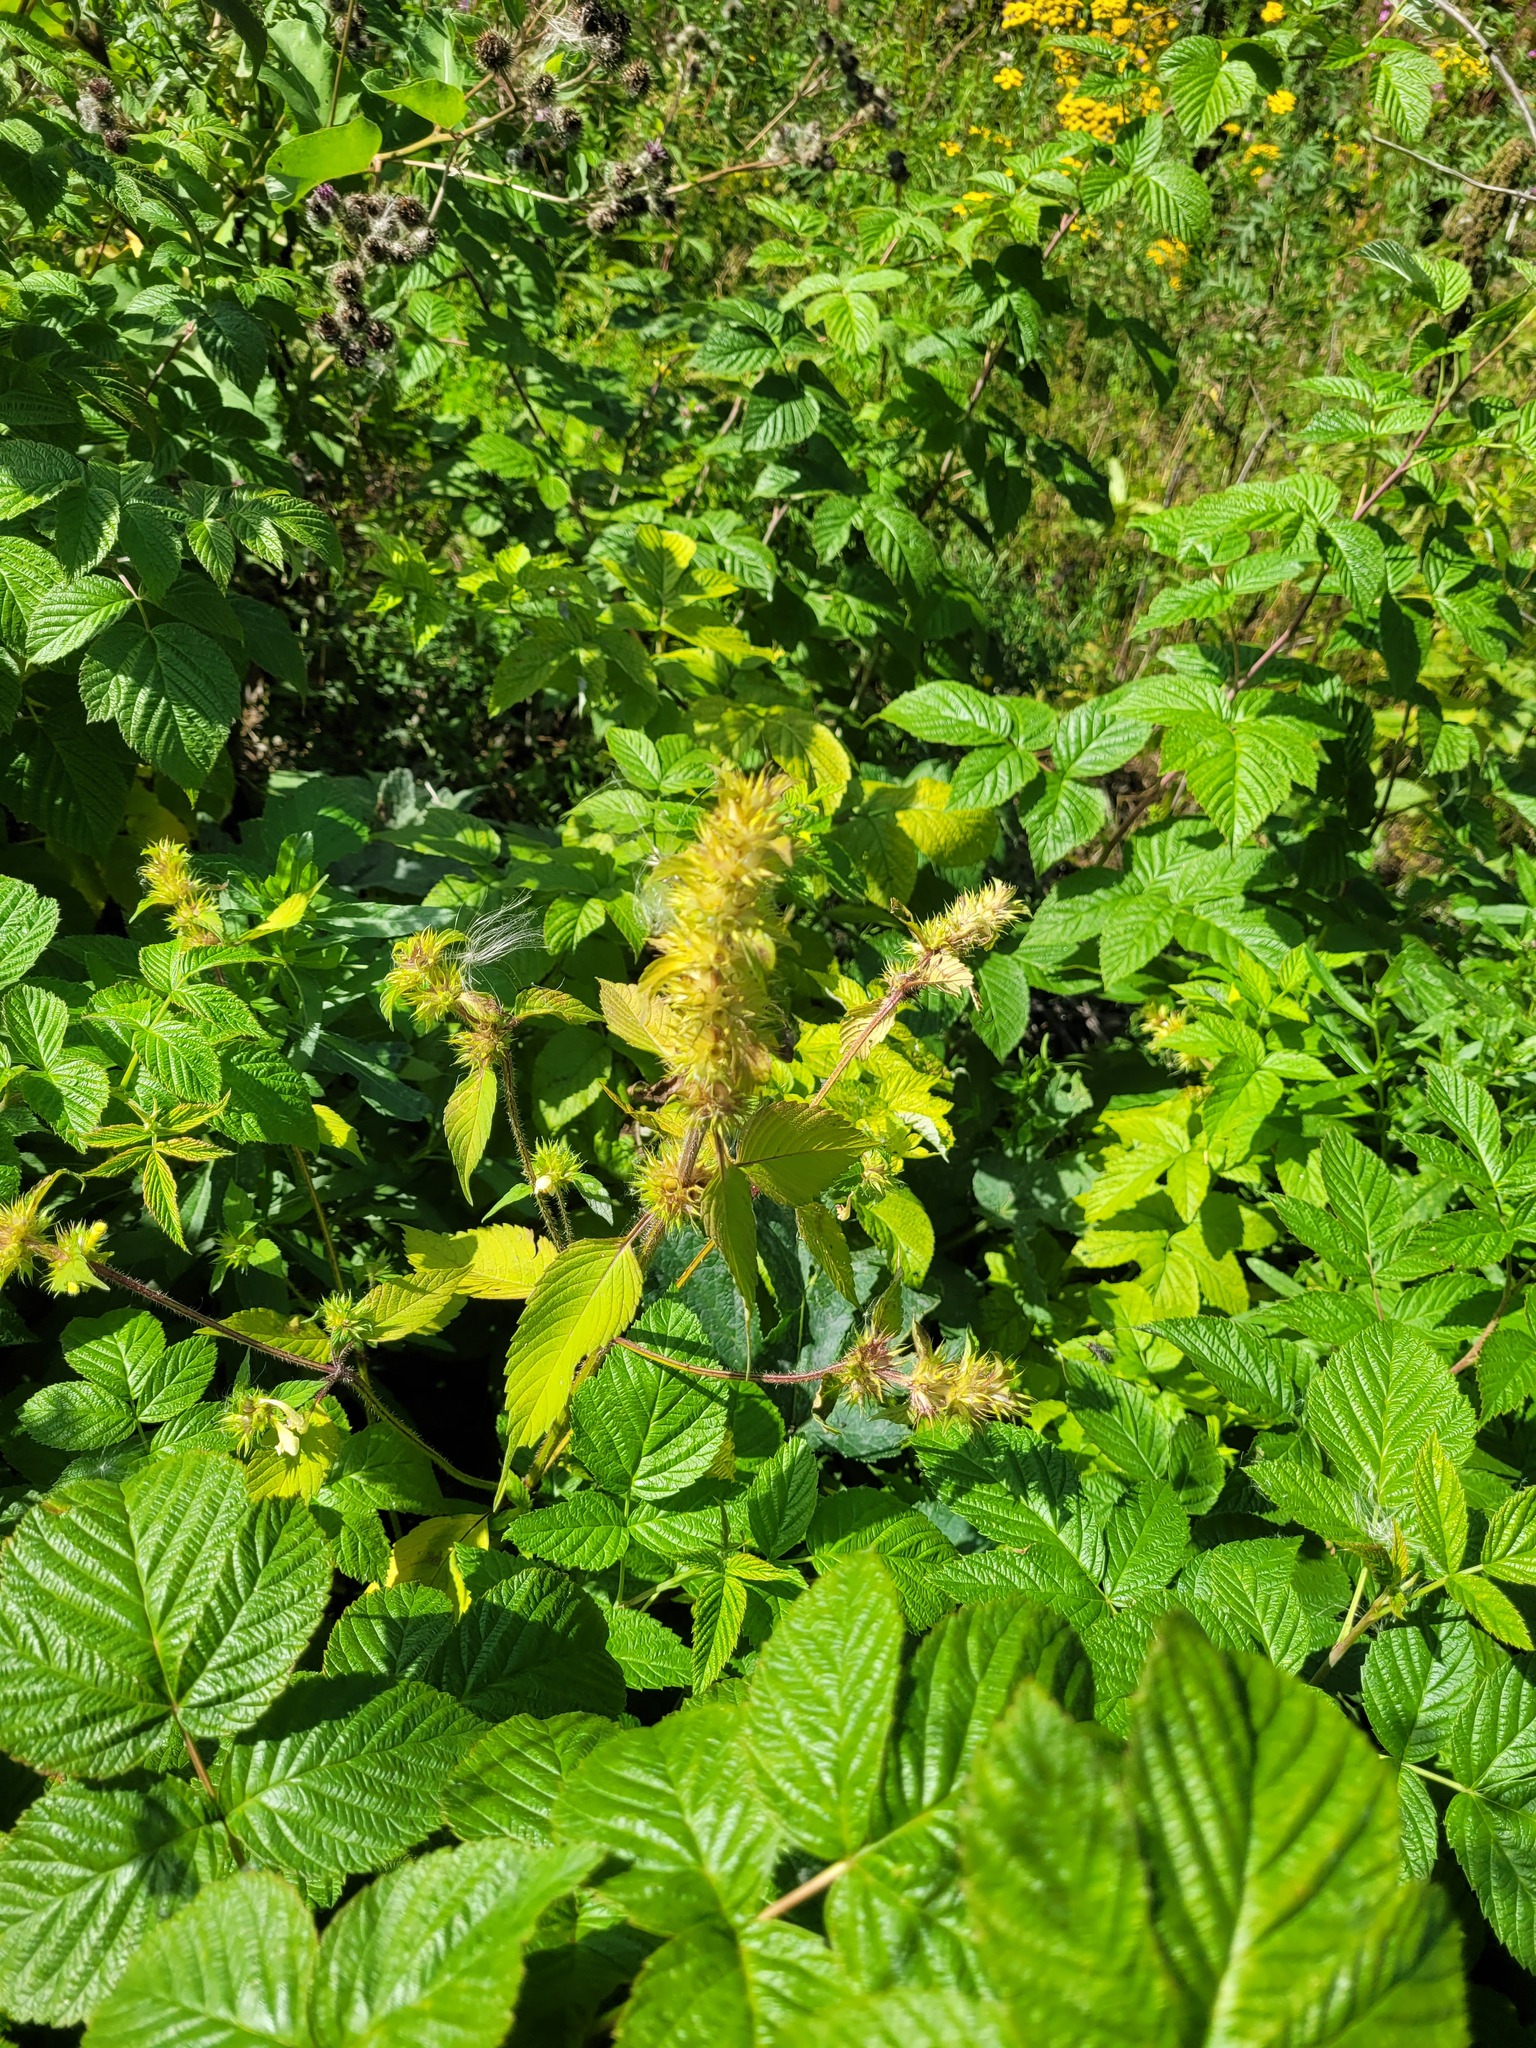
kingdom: Plantae
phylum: Tracheophyta
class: Magnoliopsida
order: Lamiales
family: Lamiaceae
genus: Galeopsis
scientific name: Galeopsis speciosa
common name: Large-flowered hemp-nettle
